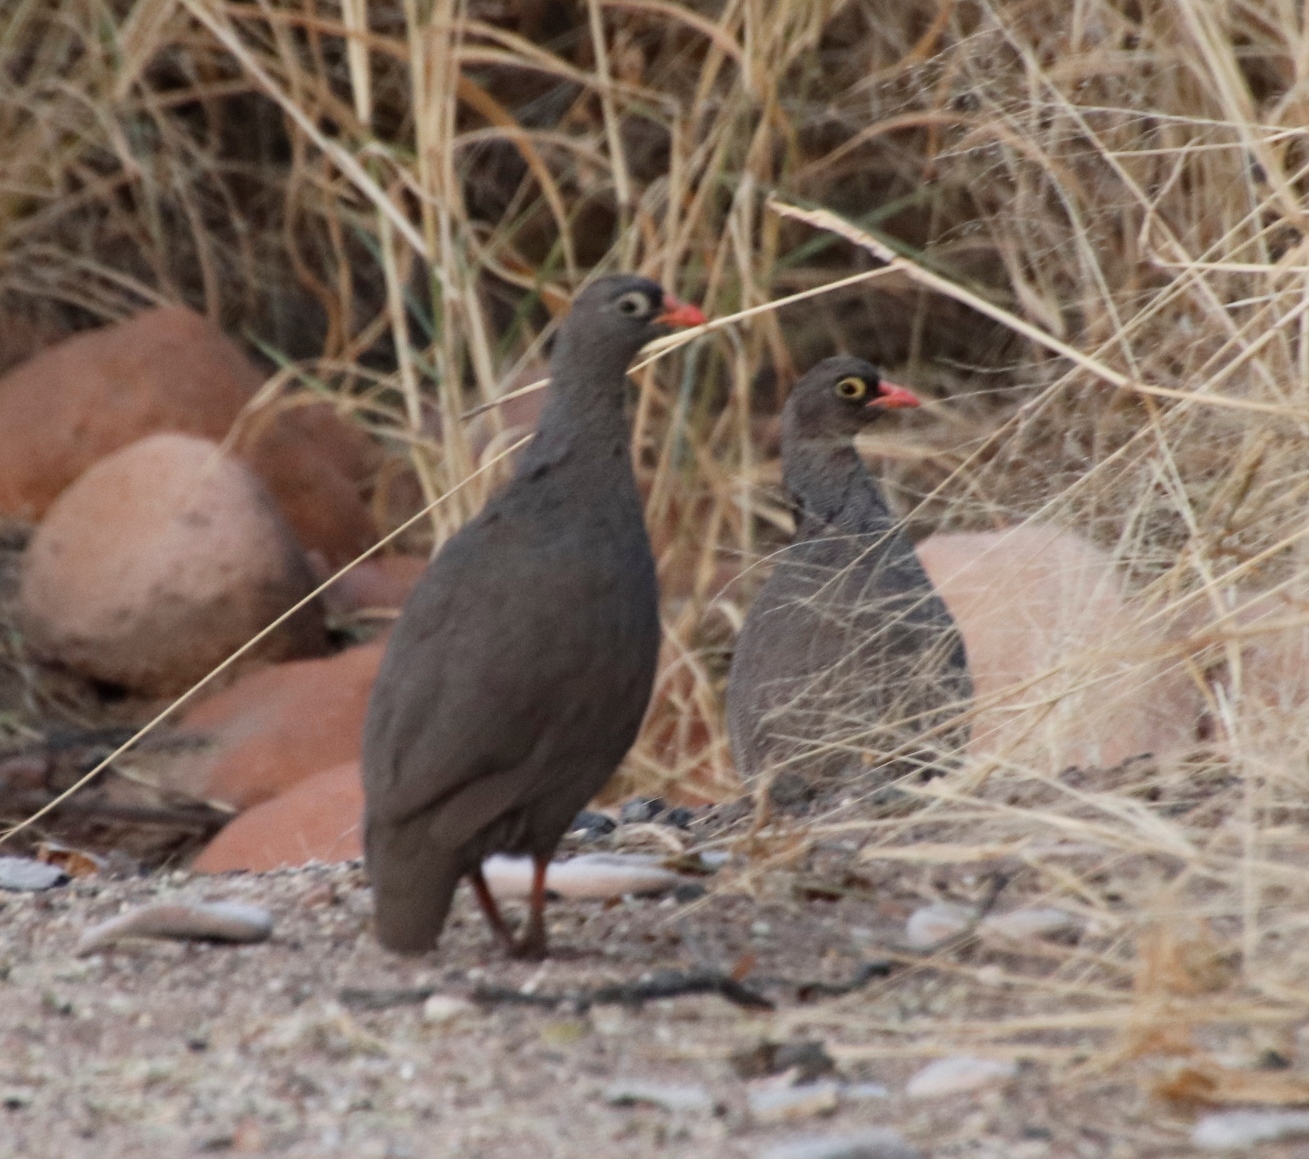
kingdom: Animalia
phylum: Chordata
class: Aves
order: Galliformes
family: Phasianidae
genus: Pternistis
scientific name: Pternistis adspersus
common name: Red-billed spurfowl
